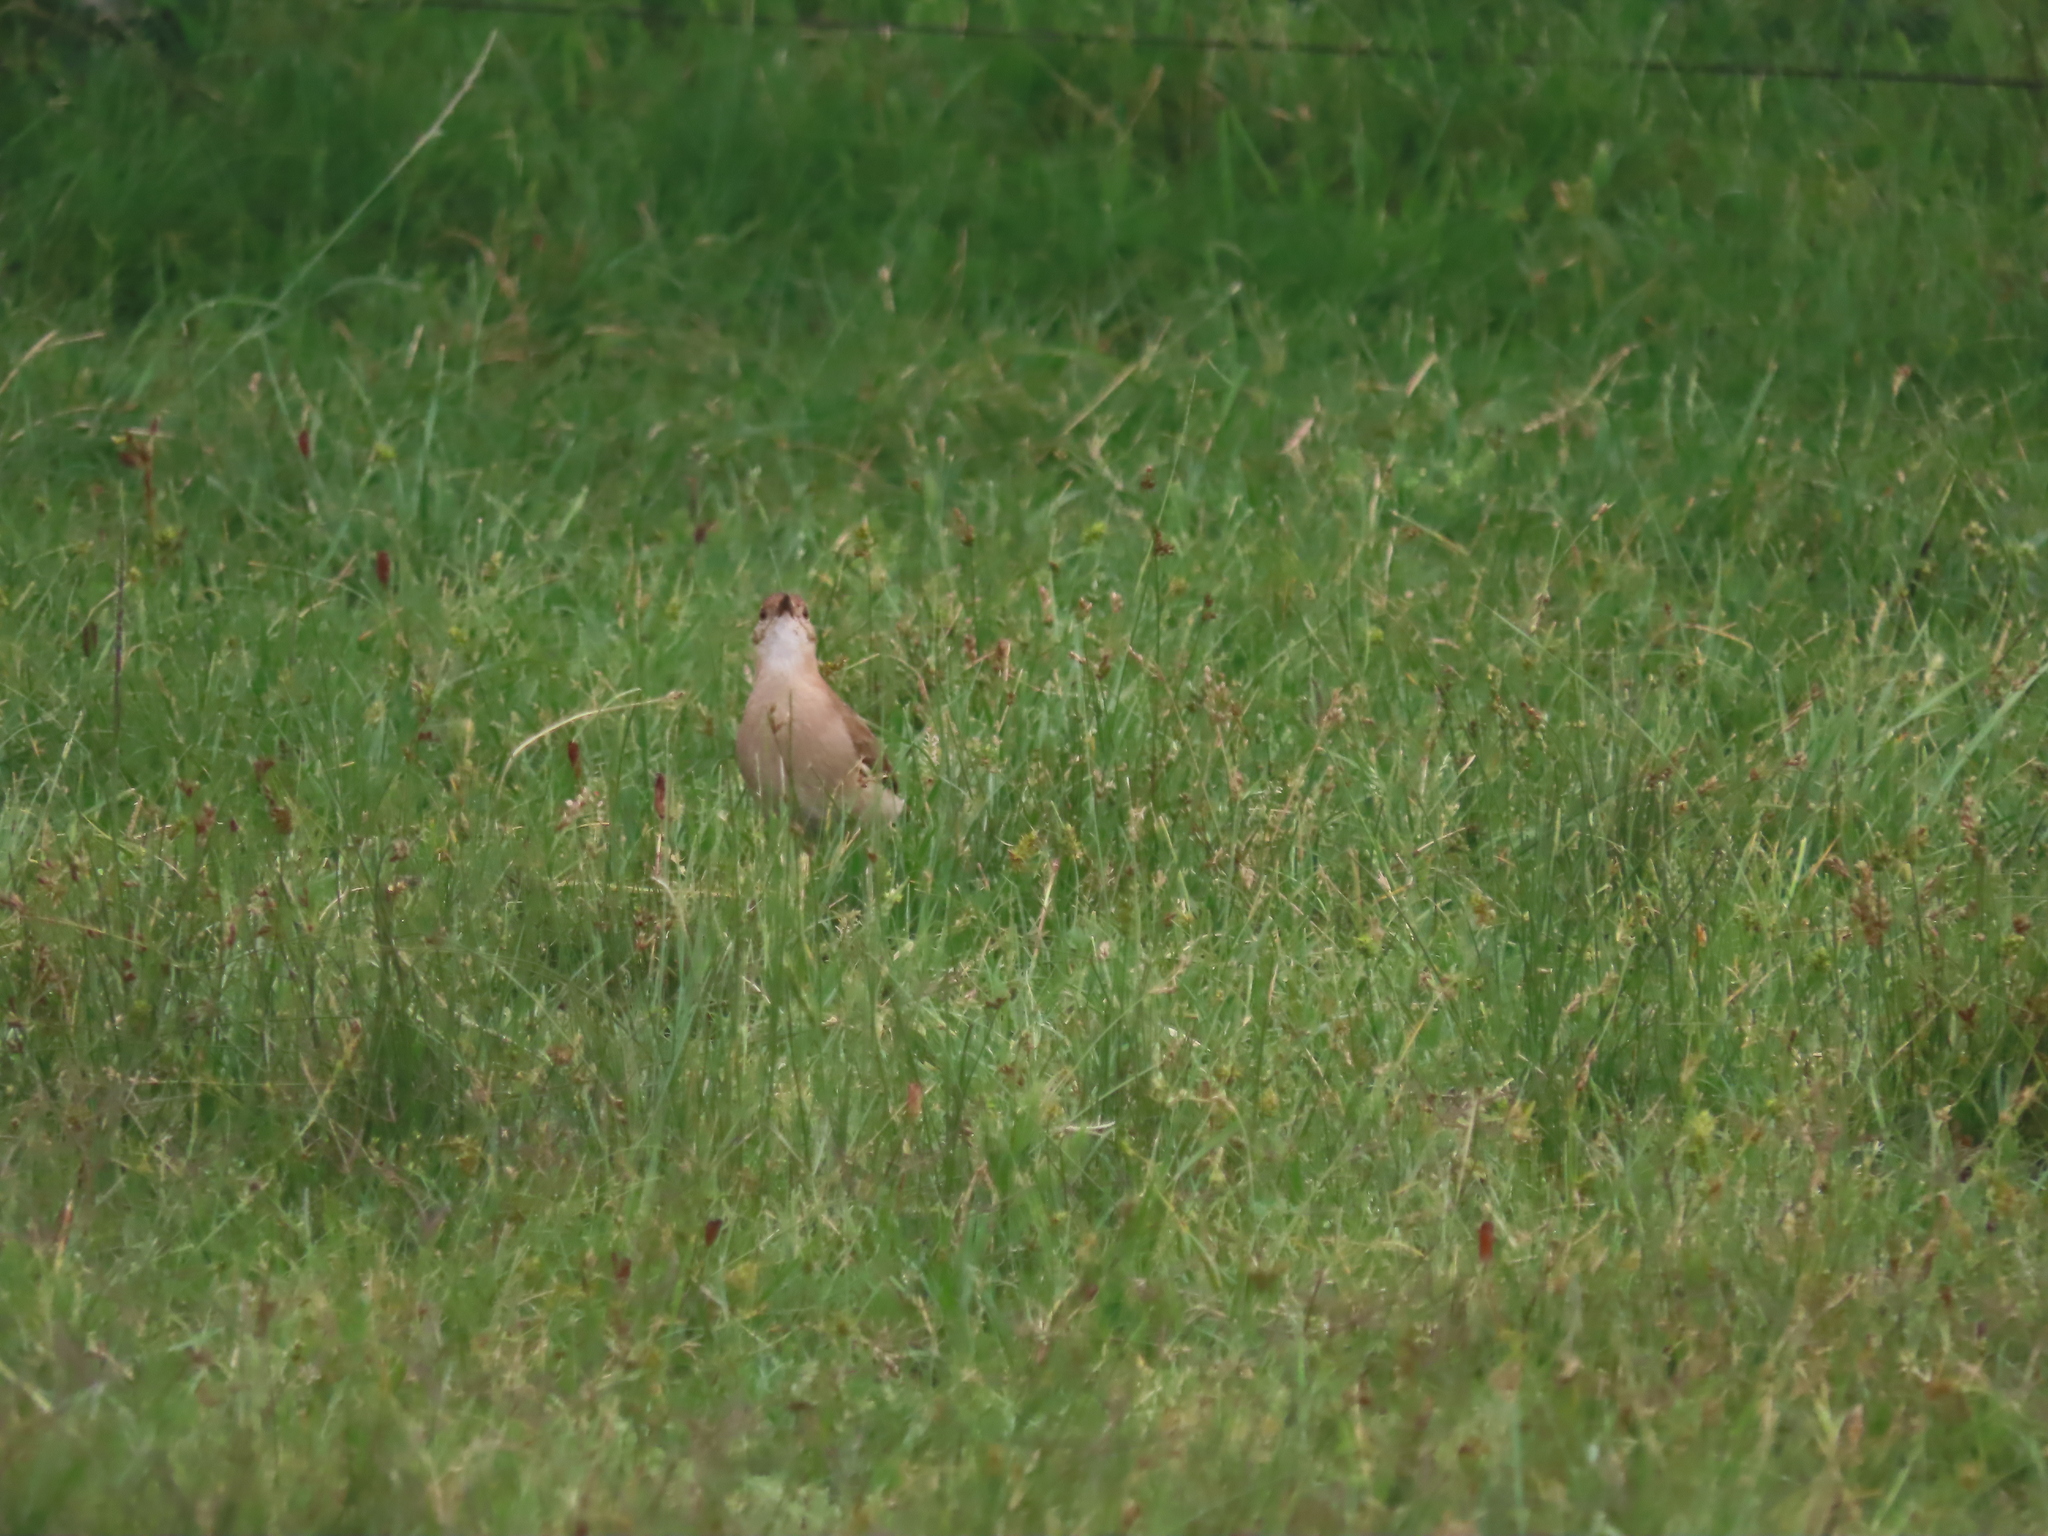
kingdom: Animalia
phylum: Chordata
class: Aves
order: Passeriformes
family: Furnariidae
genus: Furnarius
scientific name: Furnarius rufus
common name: Rufous hornero
